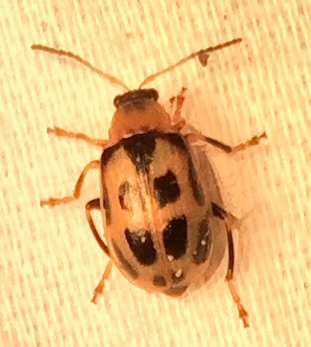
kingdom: Animalia
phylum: Arthropoda
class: Insecta
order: Coleoptera
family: Chrysomelidae
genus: Cerotoma
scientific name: Cerotoma trifurcata
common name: Bean leaf beetle
